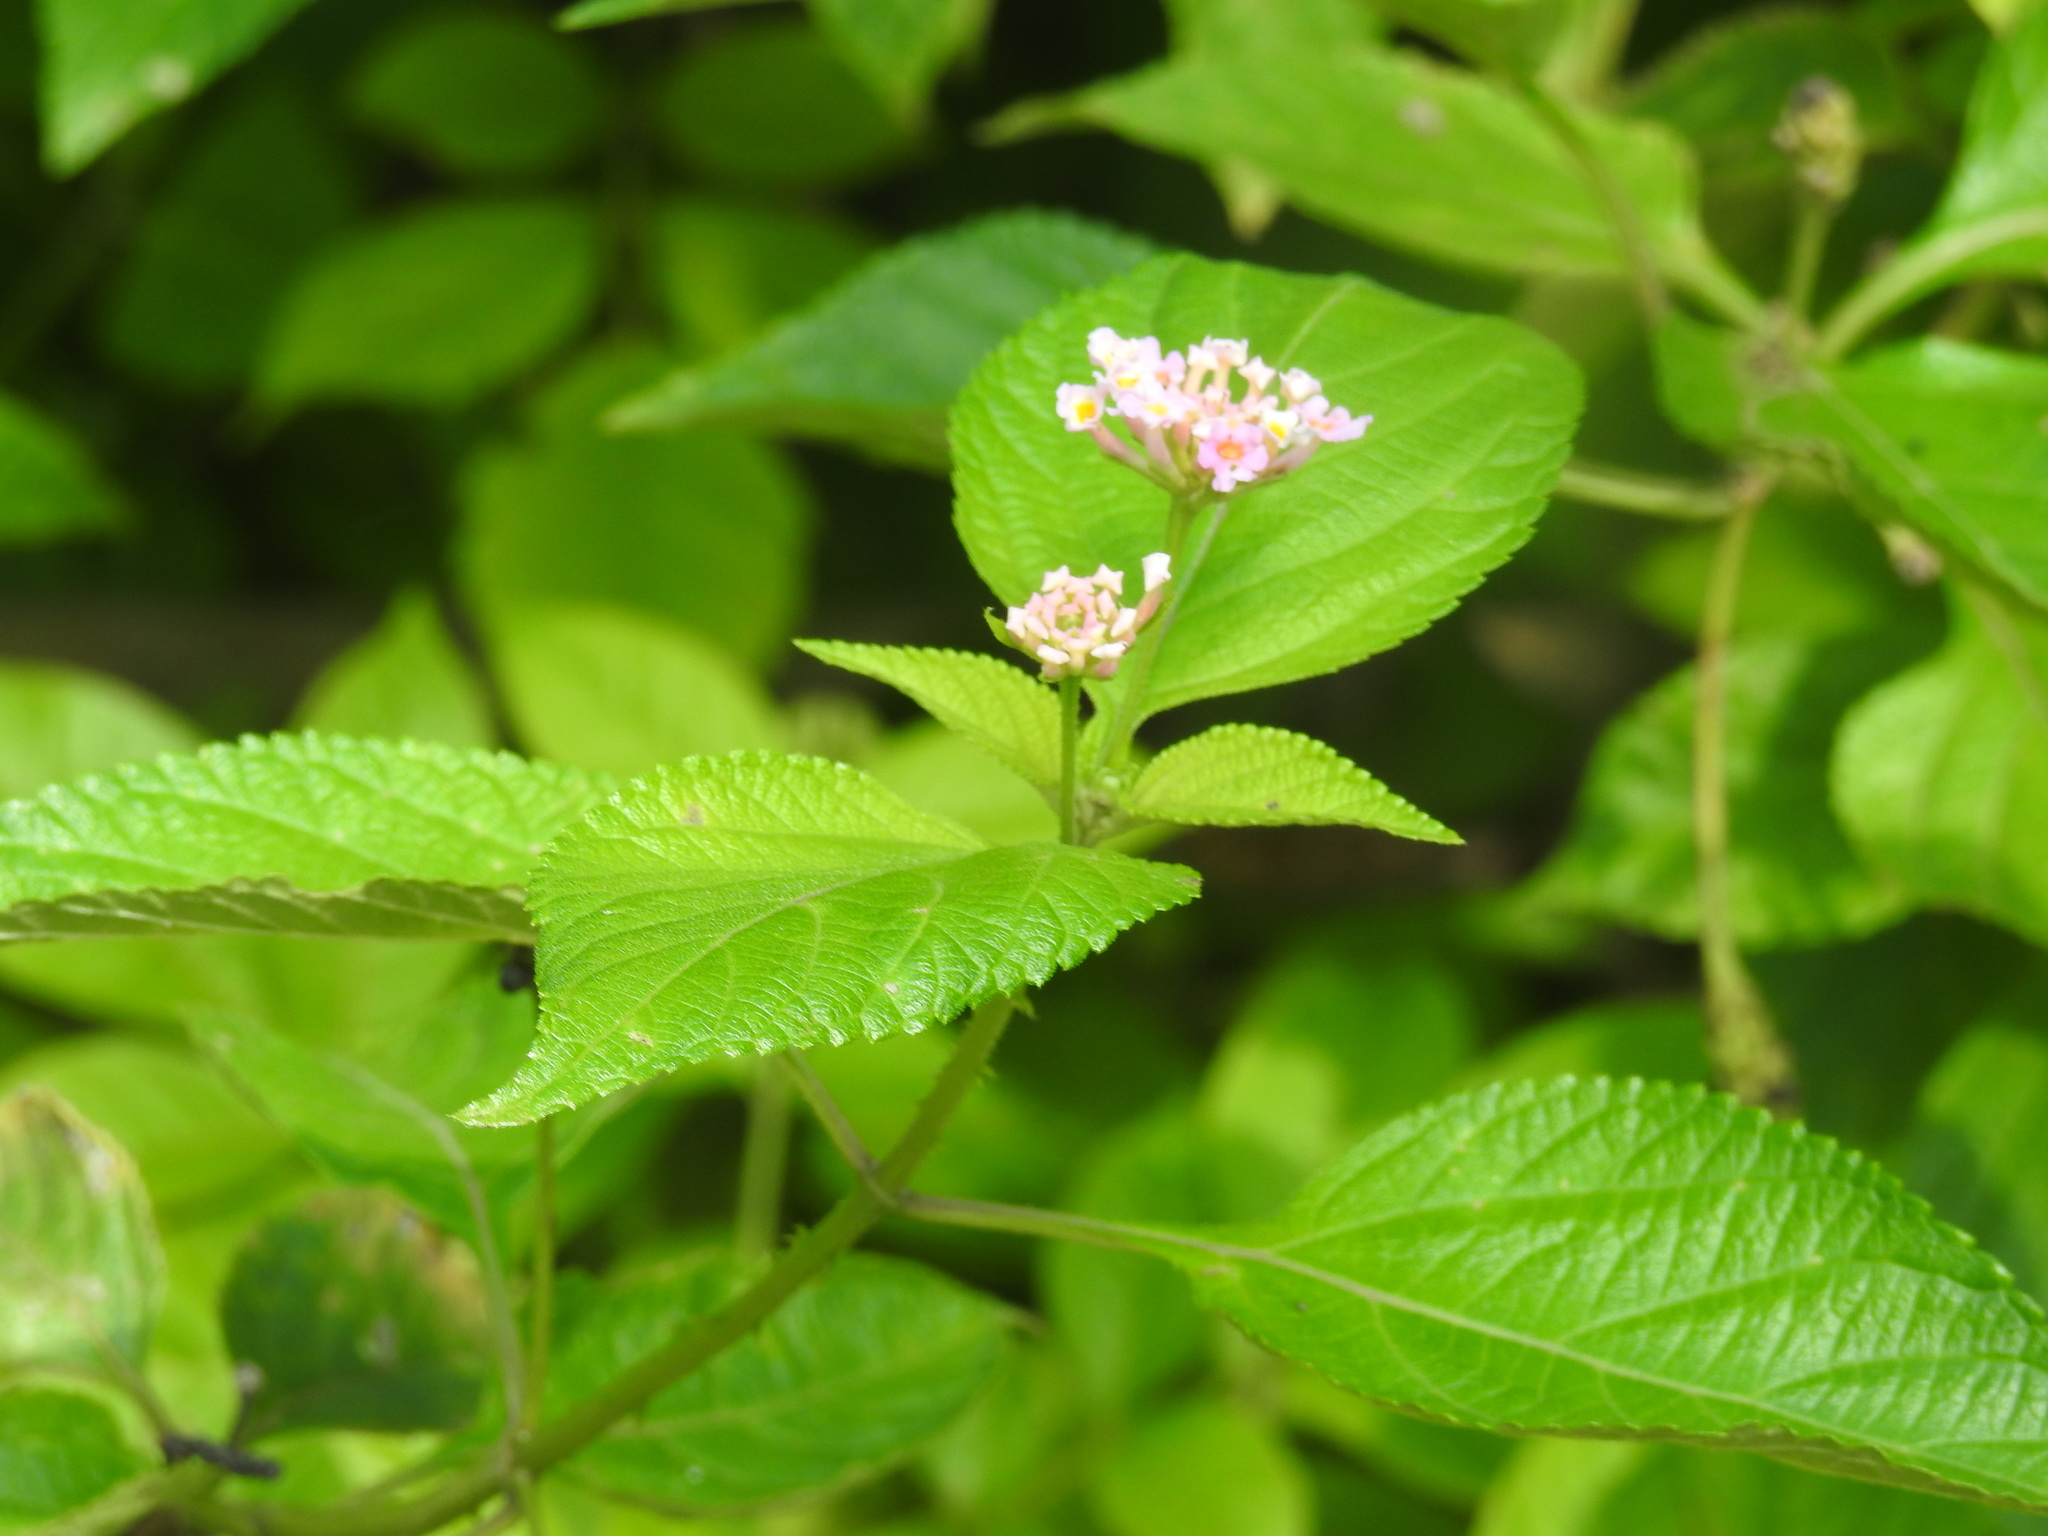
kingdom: Plantae
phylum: Tracheophyta
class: Magnoliopsida
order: Lamiales
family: Verbenaceae
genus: Lantana
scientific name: Lantana camara
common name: Lantana
